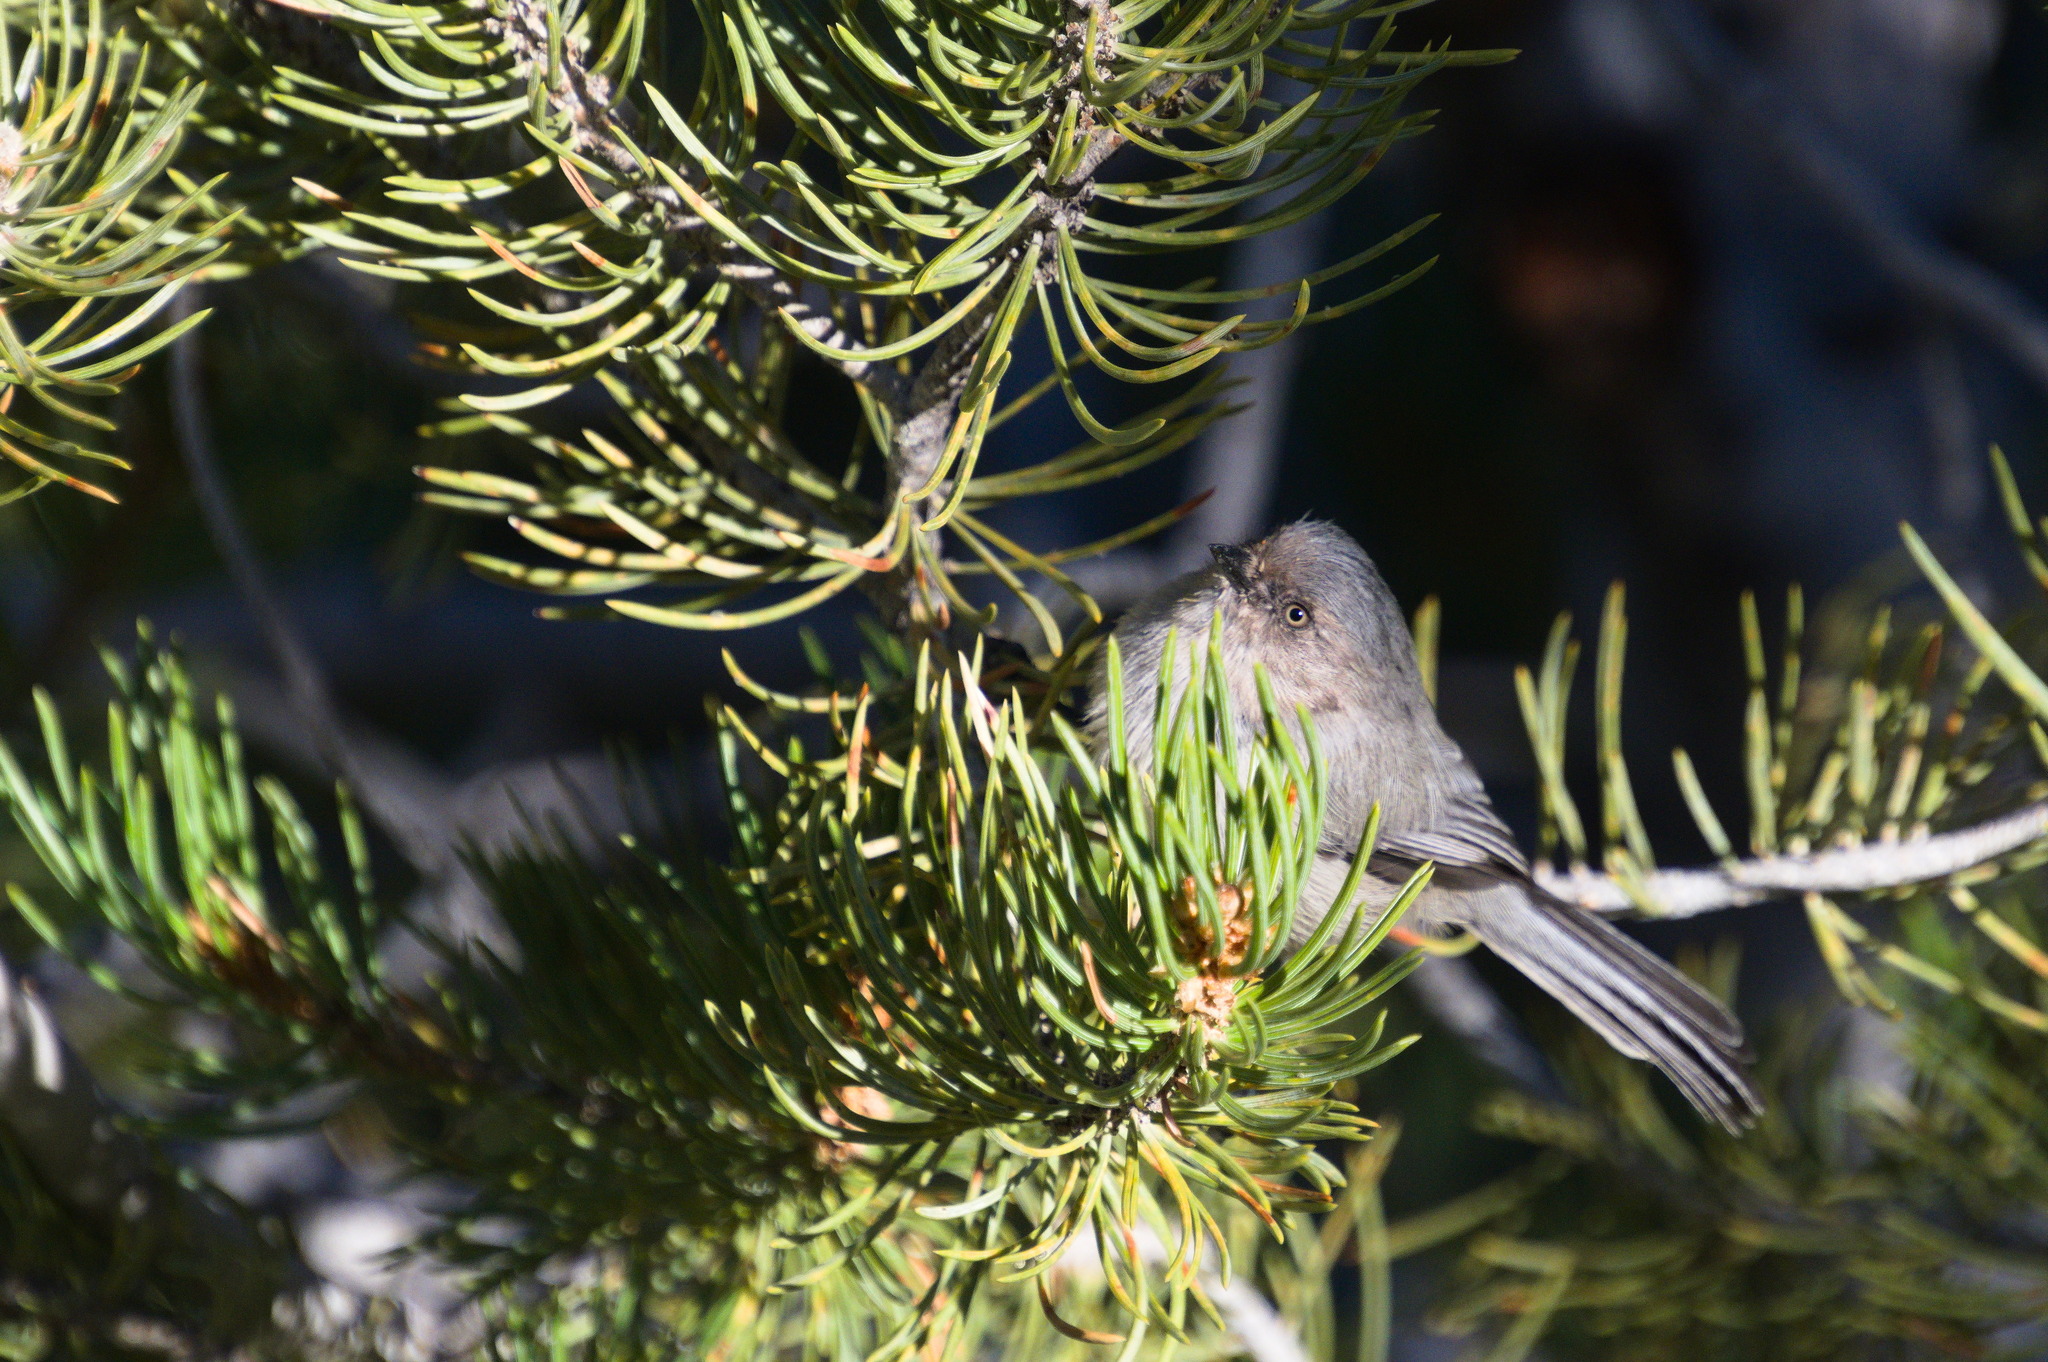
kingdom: Animalia
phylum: Chordata
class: Aves
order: Passeriformes
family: Aegithalidae
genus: Psaltriparus
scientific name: Psaltriparus minimus
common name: American bushtit
